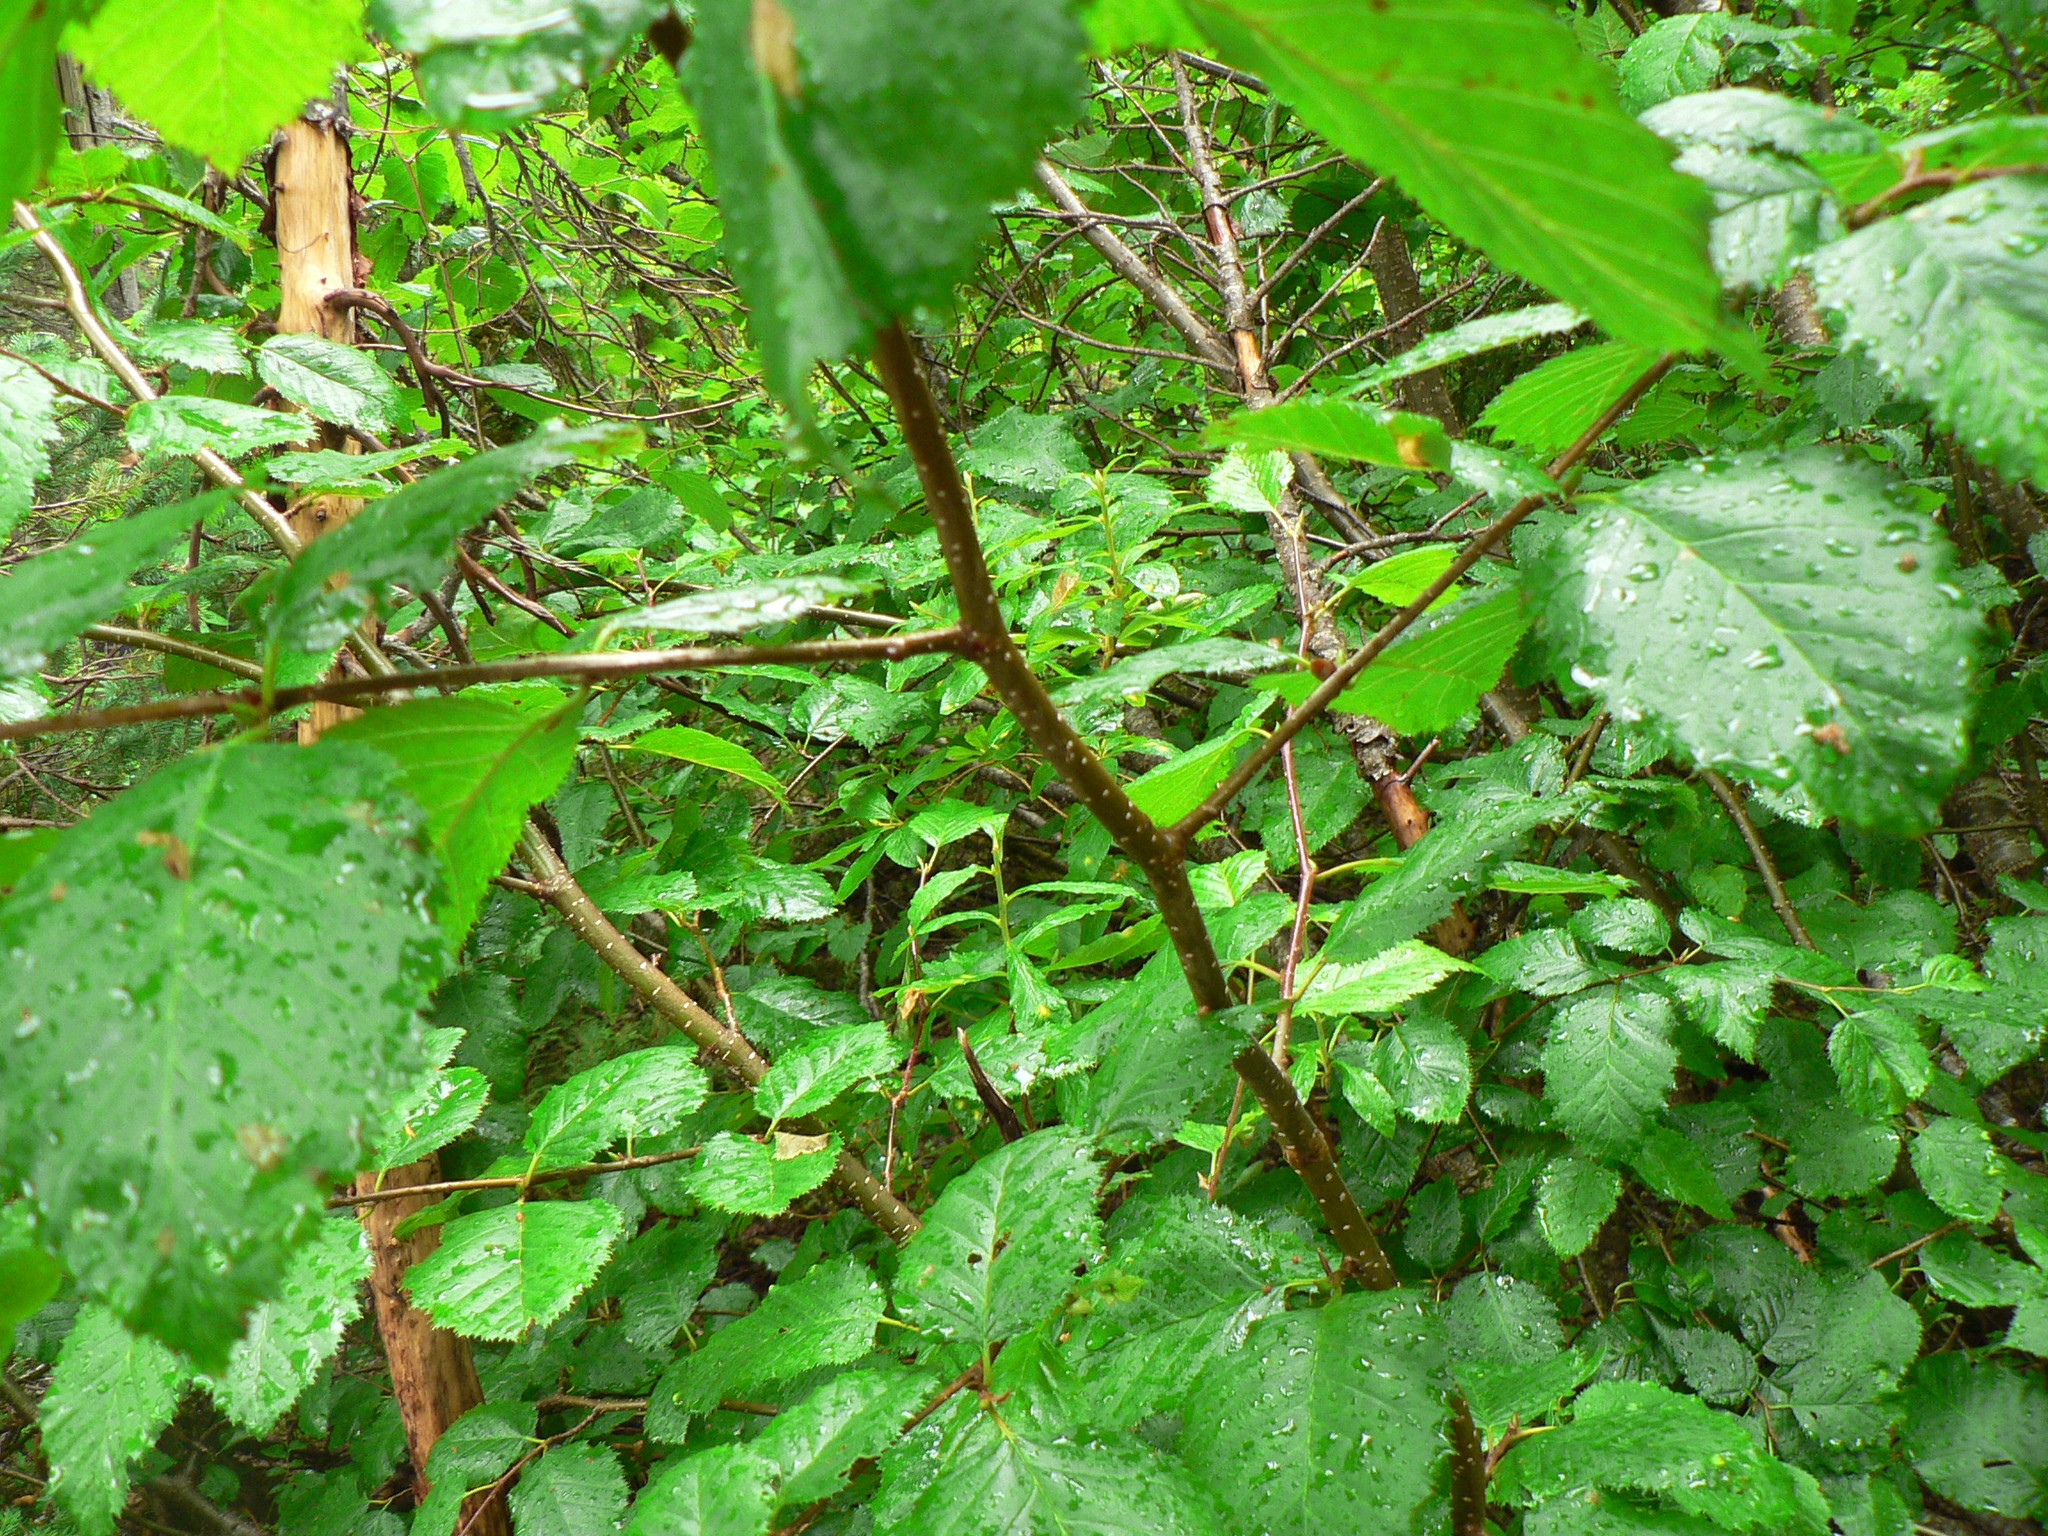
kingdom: Plantae
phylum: Tracheophyta
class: Magnoliopsida
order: Fagales
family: Betulaceae
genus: Alnus
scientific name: Alnus alnobetula
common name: Green alder
